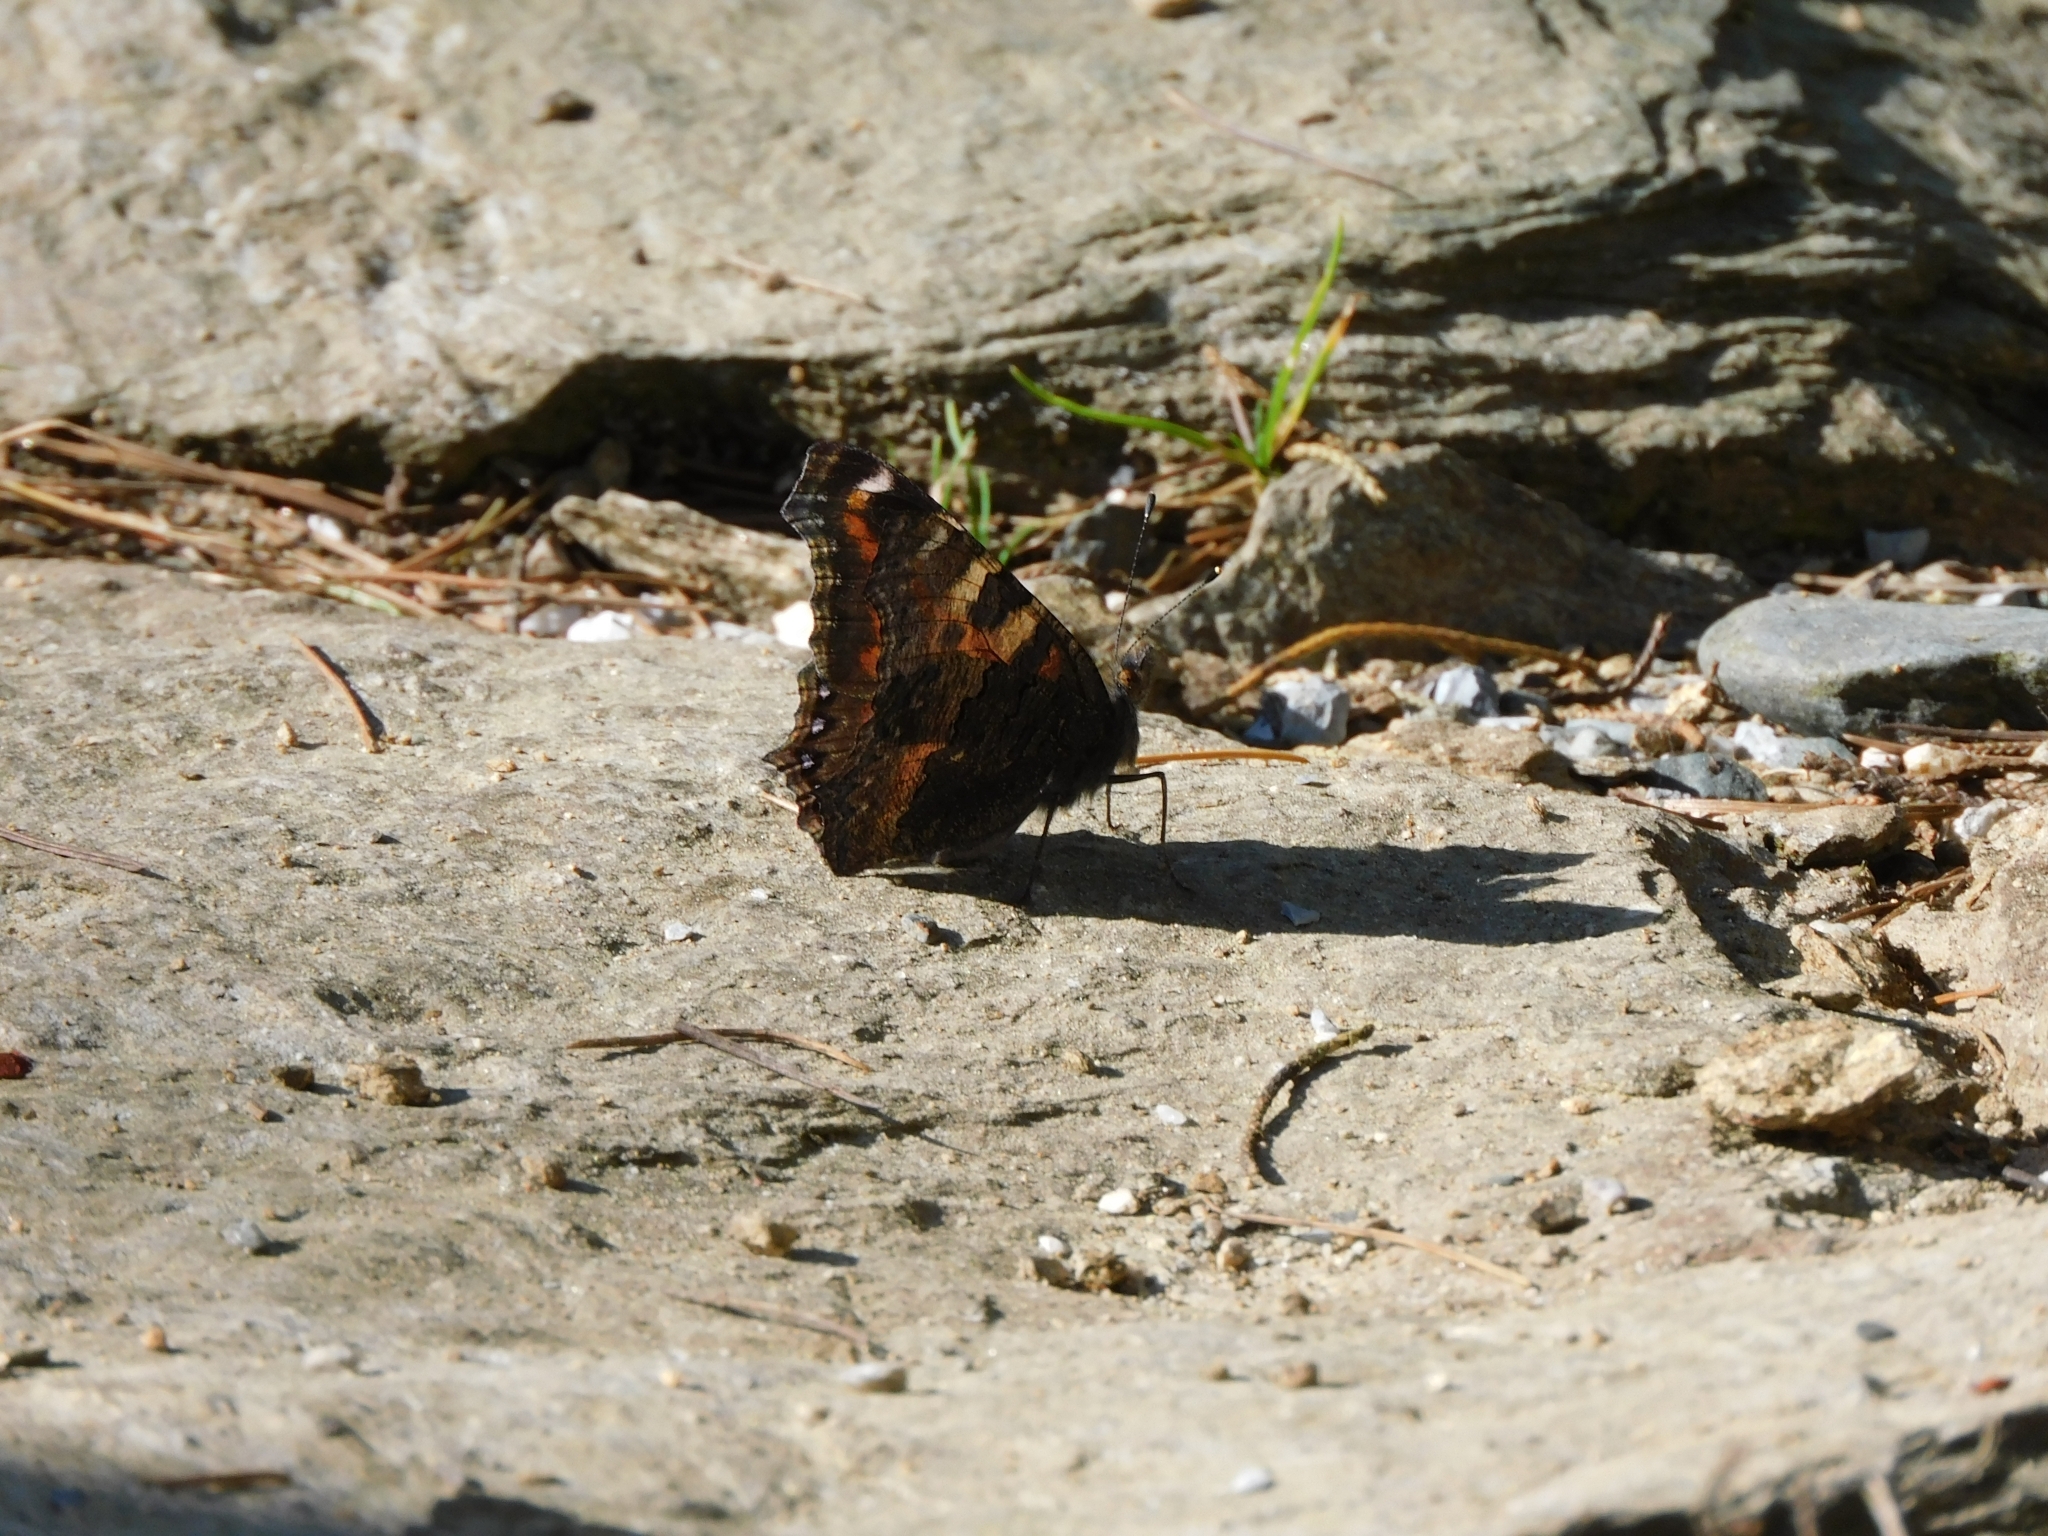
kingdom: Animalia
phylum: Arthropoda
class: Insecta
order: Lepidoptera
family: Nymphalidae
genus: Aglais
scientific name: Aglais caschmirensis
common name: Indian tortoiseshell
